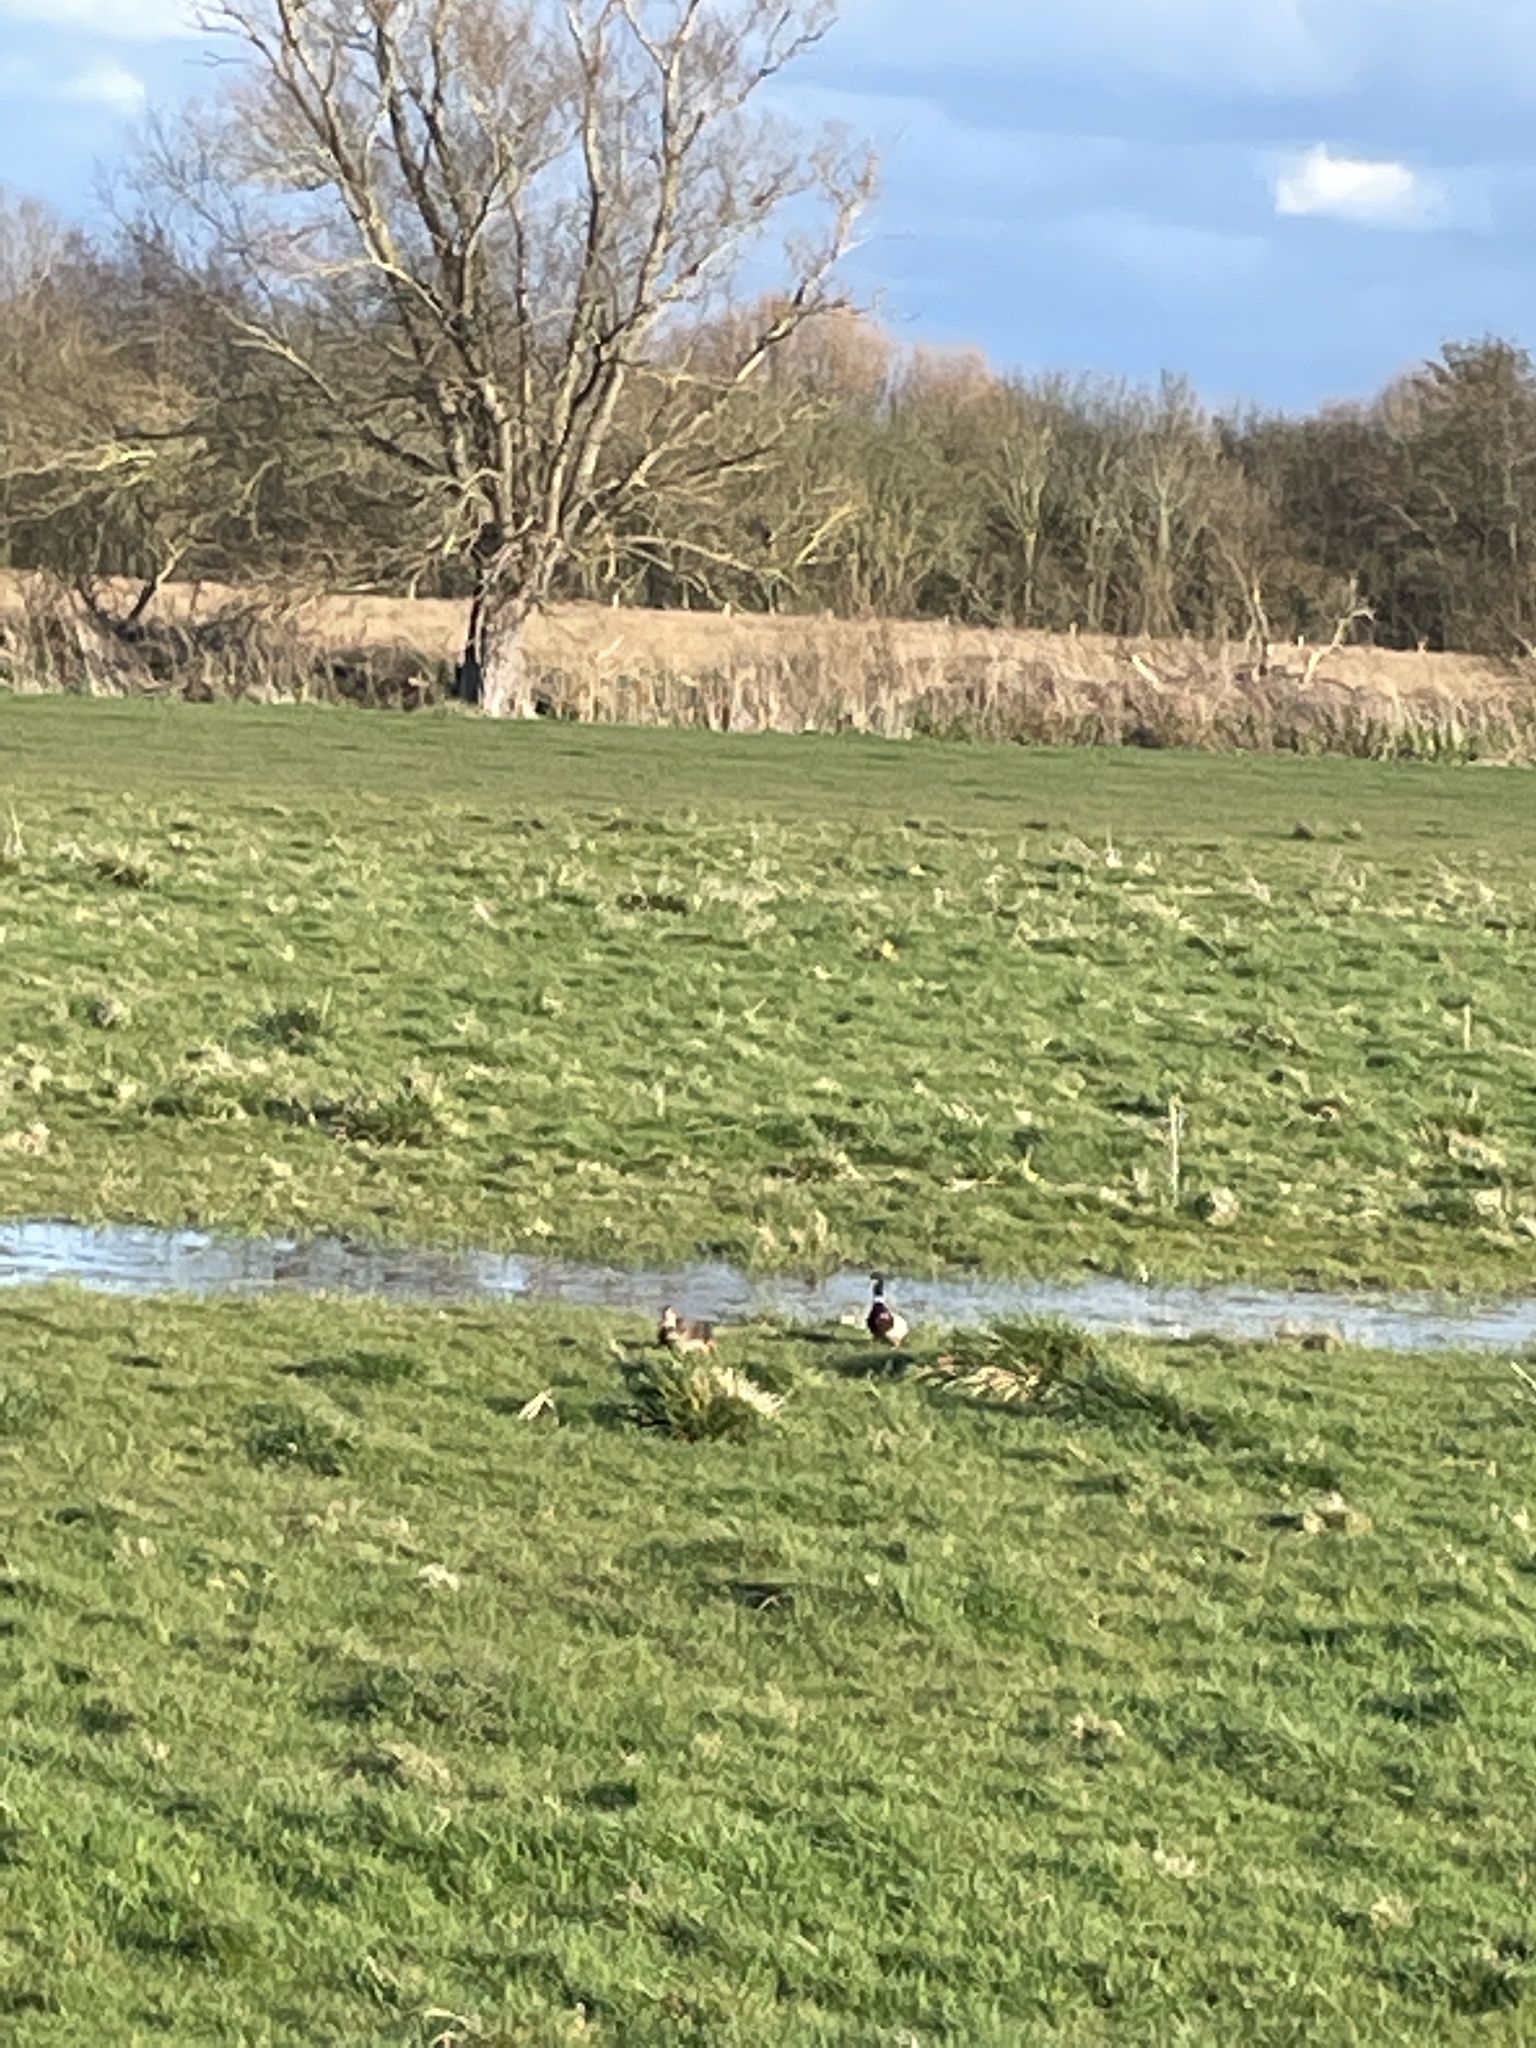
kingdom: Animalia
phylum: Chordata
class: Aves
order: Anseriformes
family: Anatidae
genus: Anas
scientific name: Anas platyrhynchos
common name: Mallard
